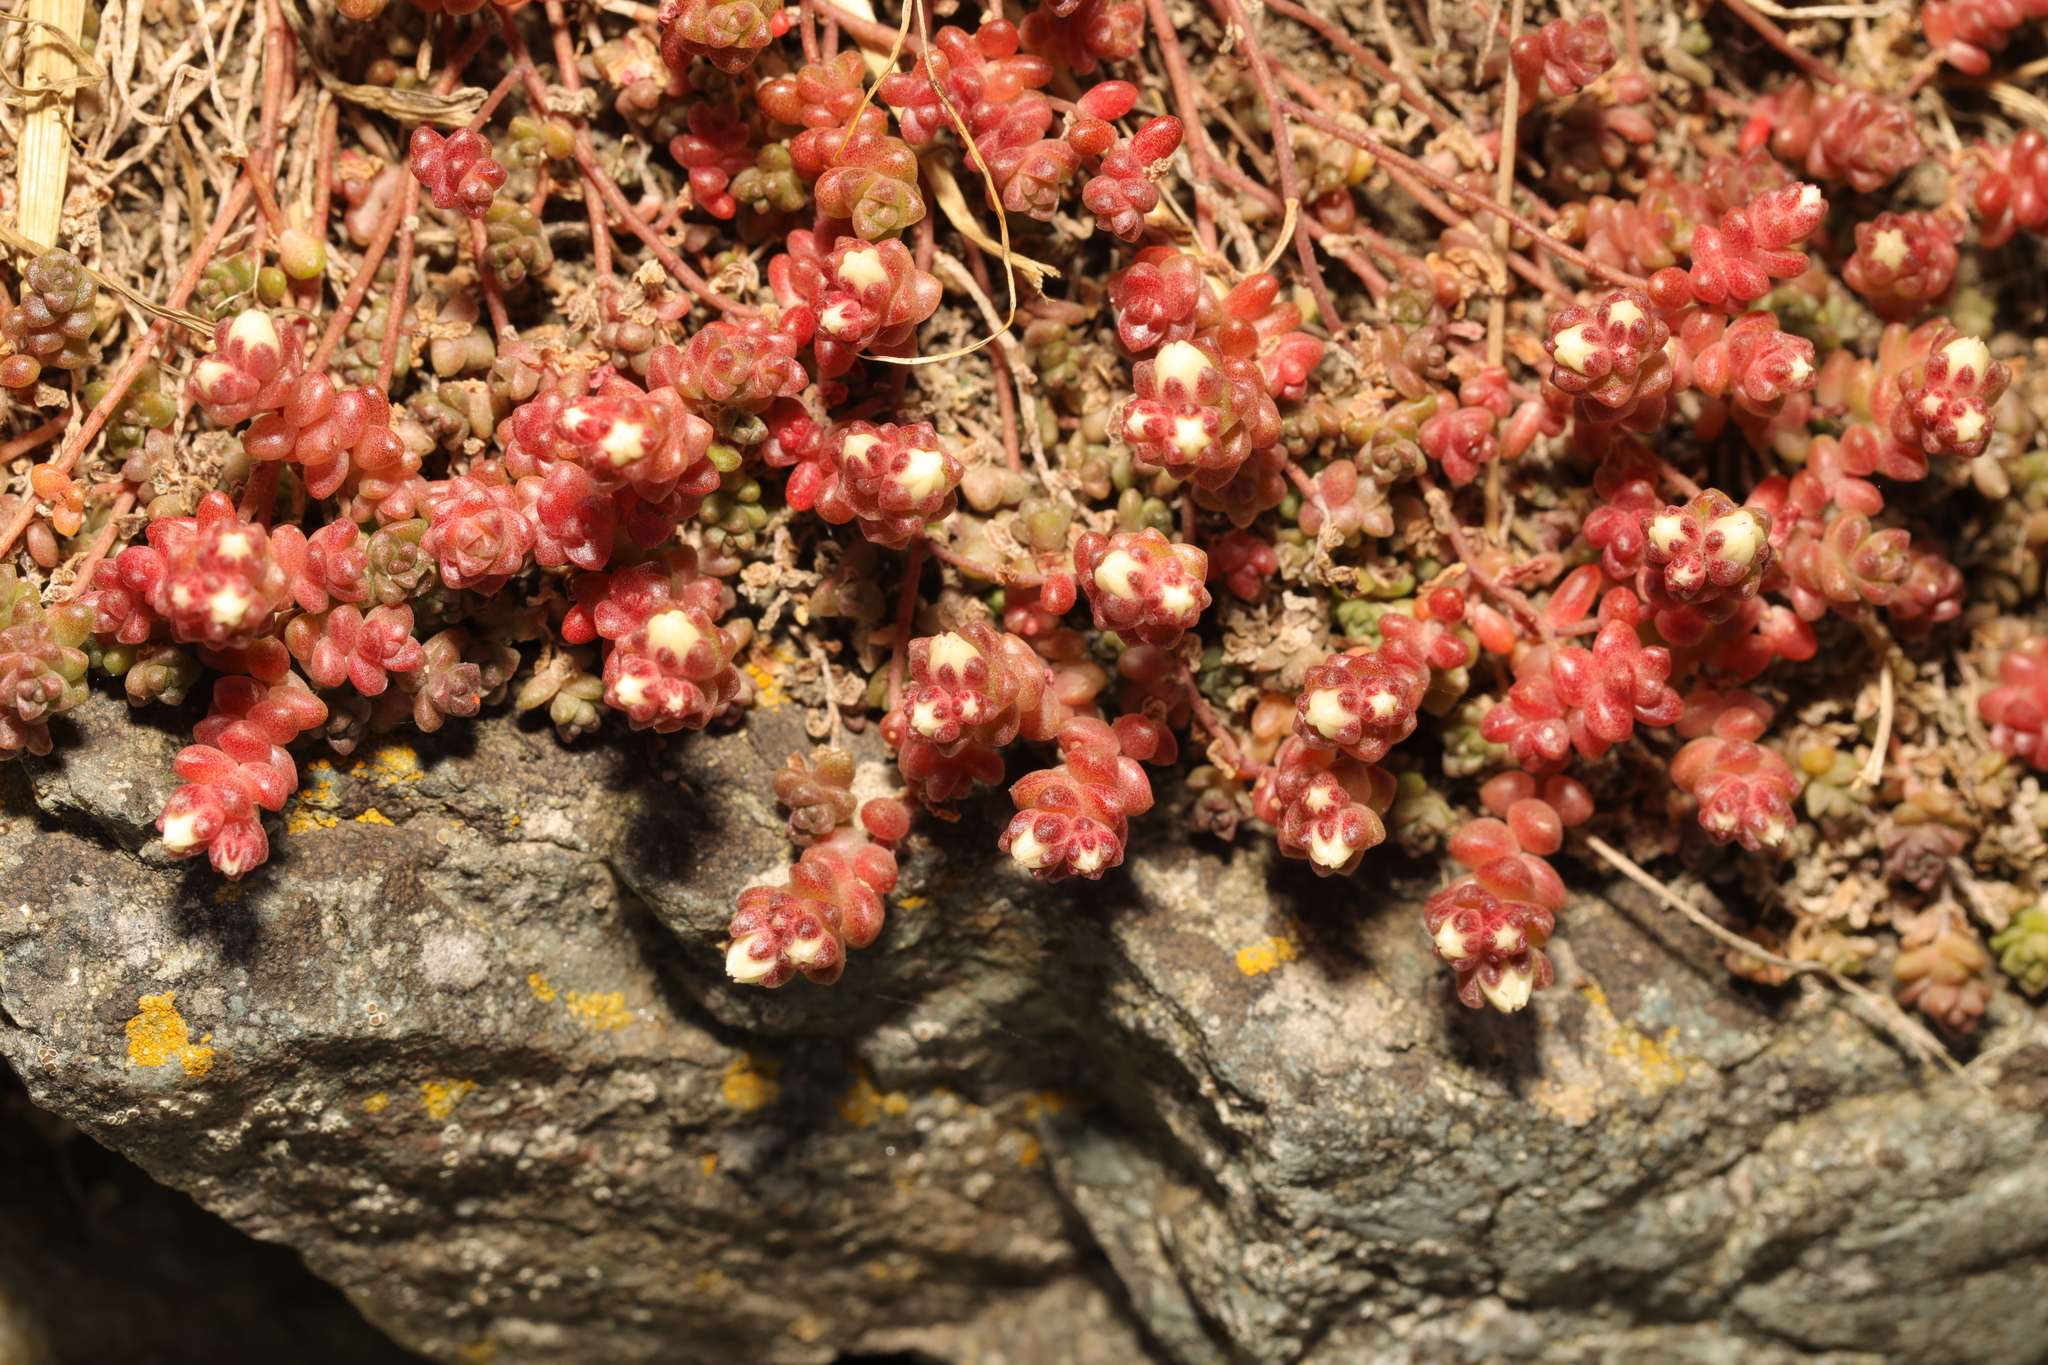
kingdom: Plantae
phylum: Tracheophyta
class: Magnoliopsida
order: Saxifragales
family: Crassulaceae
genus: Sedum
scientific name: Sedum anglicum
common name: English stonecrop
